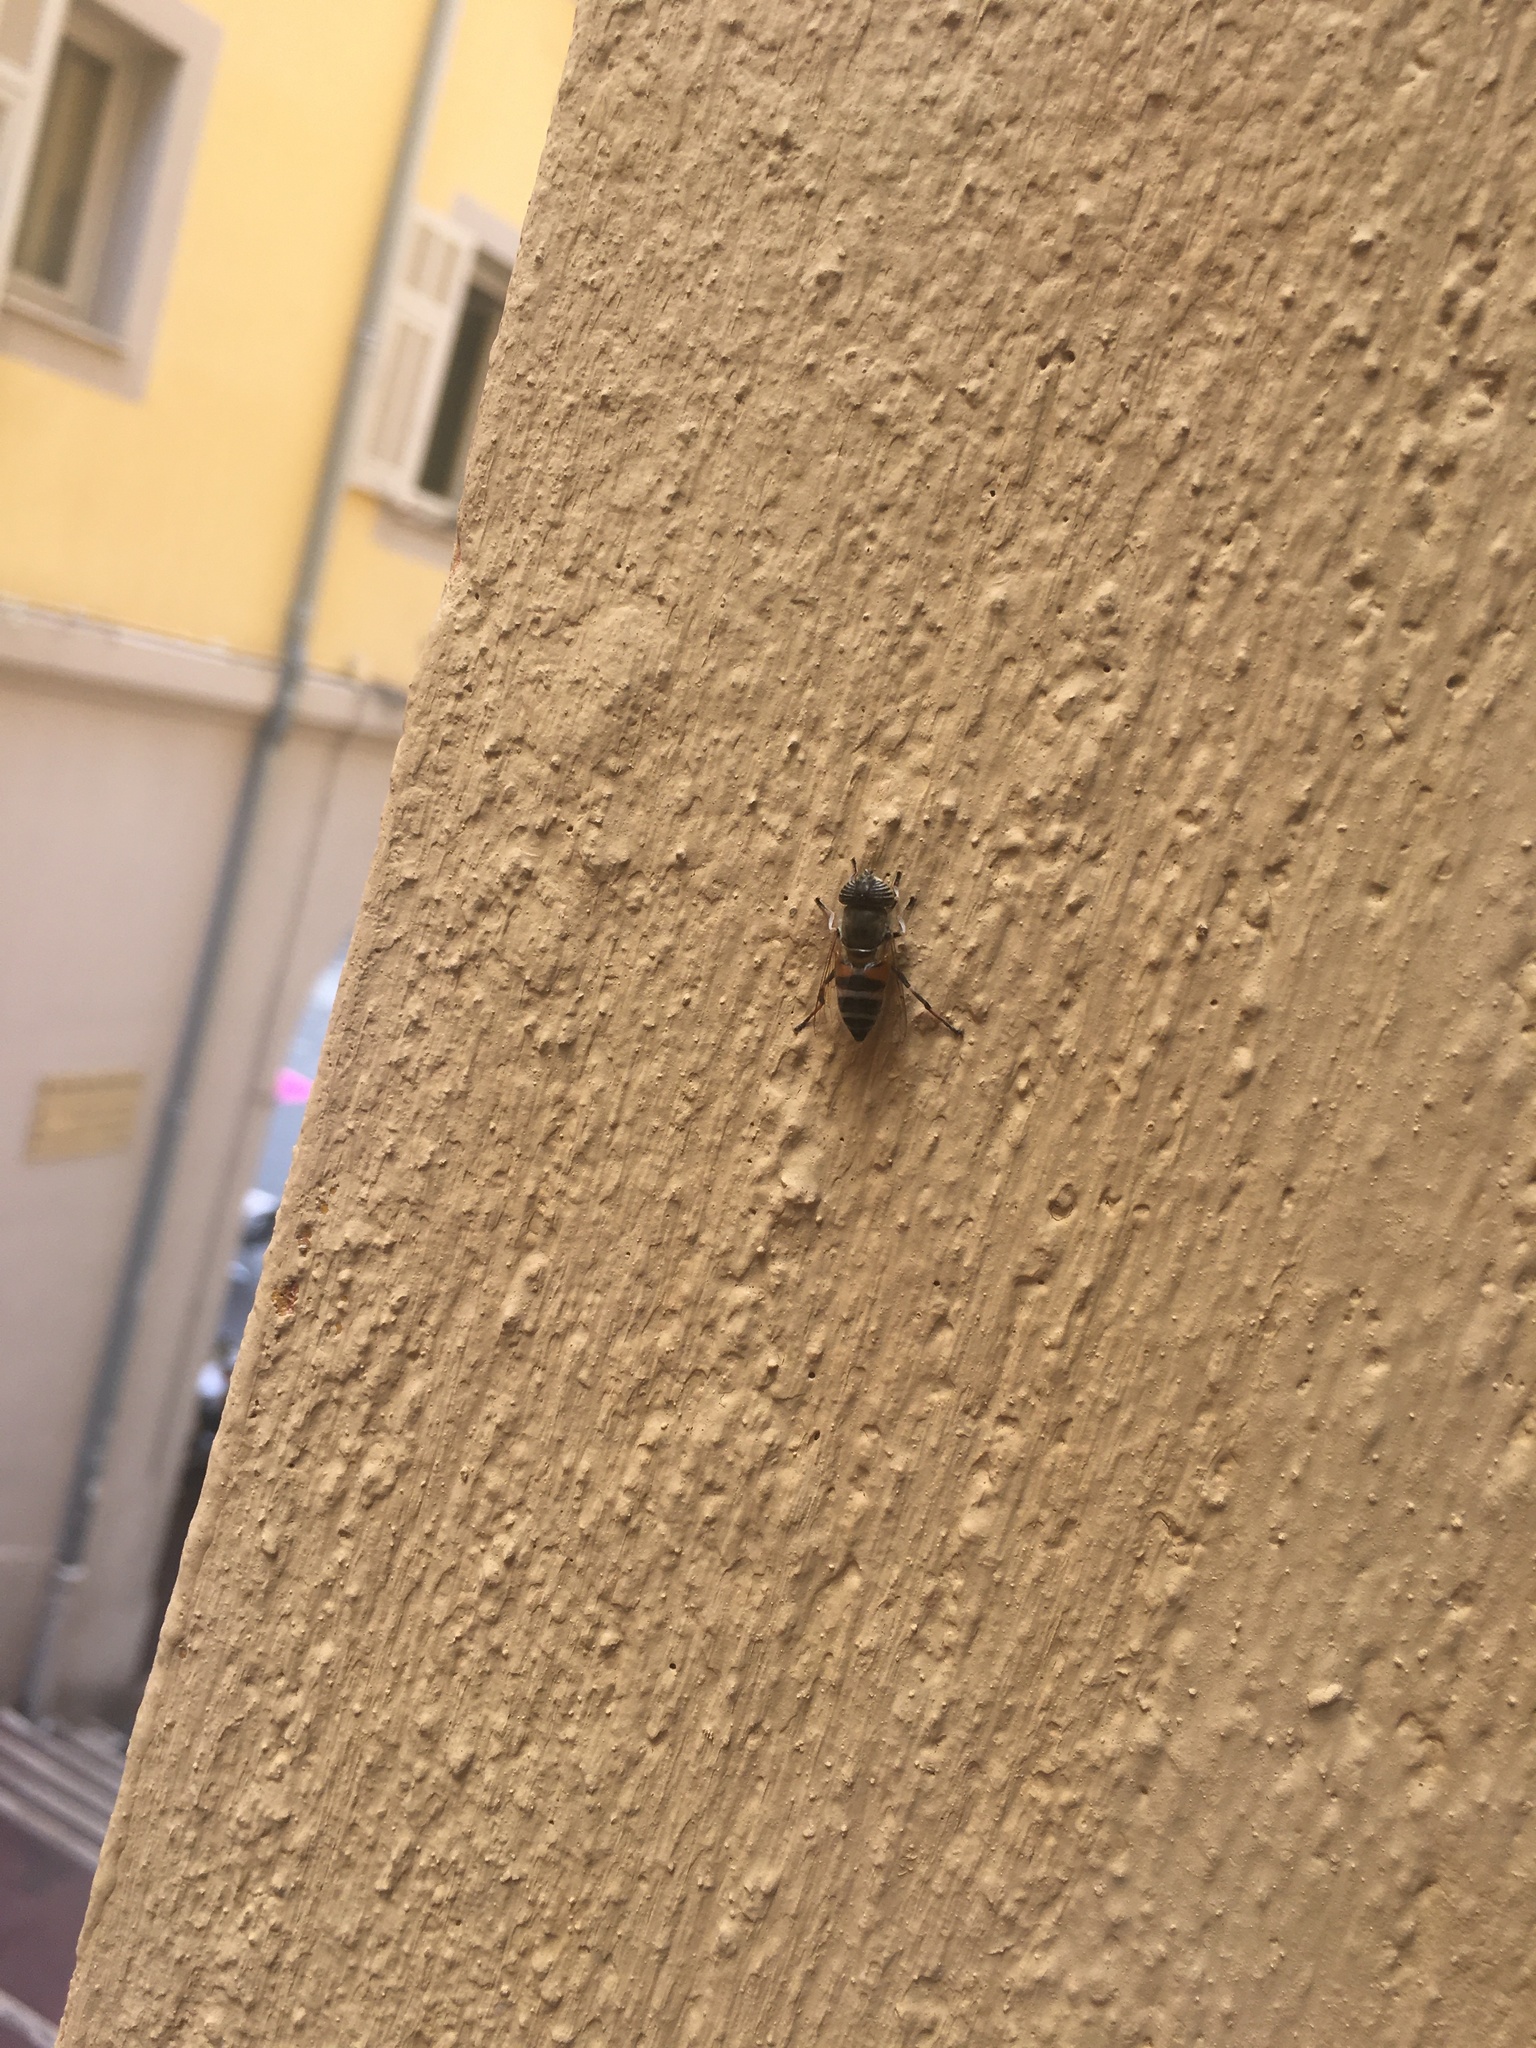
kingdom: Animalia
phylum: Arthropoda
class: Insecta
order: Diptera
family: Syrphidae
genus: Eristalinus
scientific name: Eristalinus taeniops
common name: Syrphid fly
